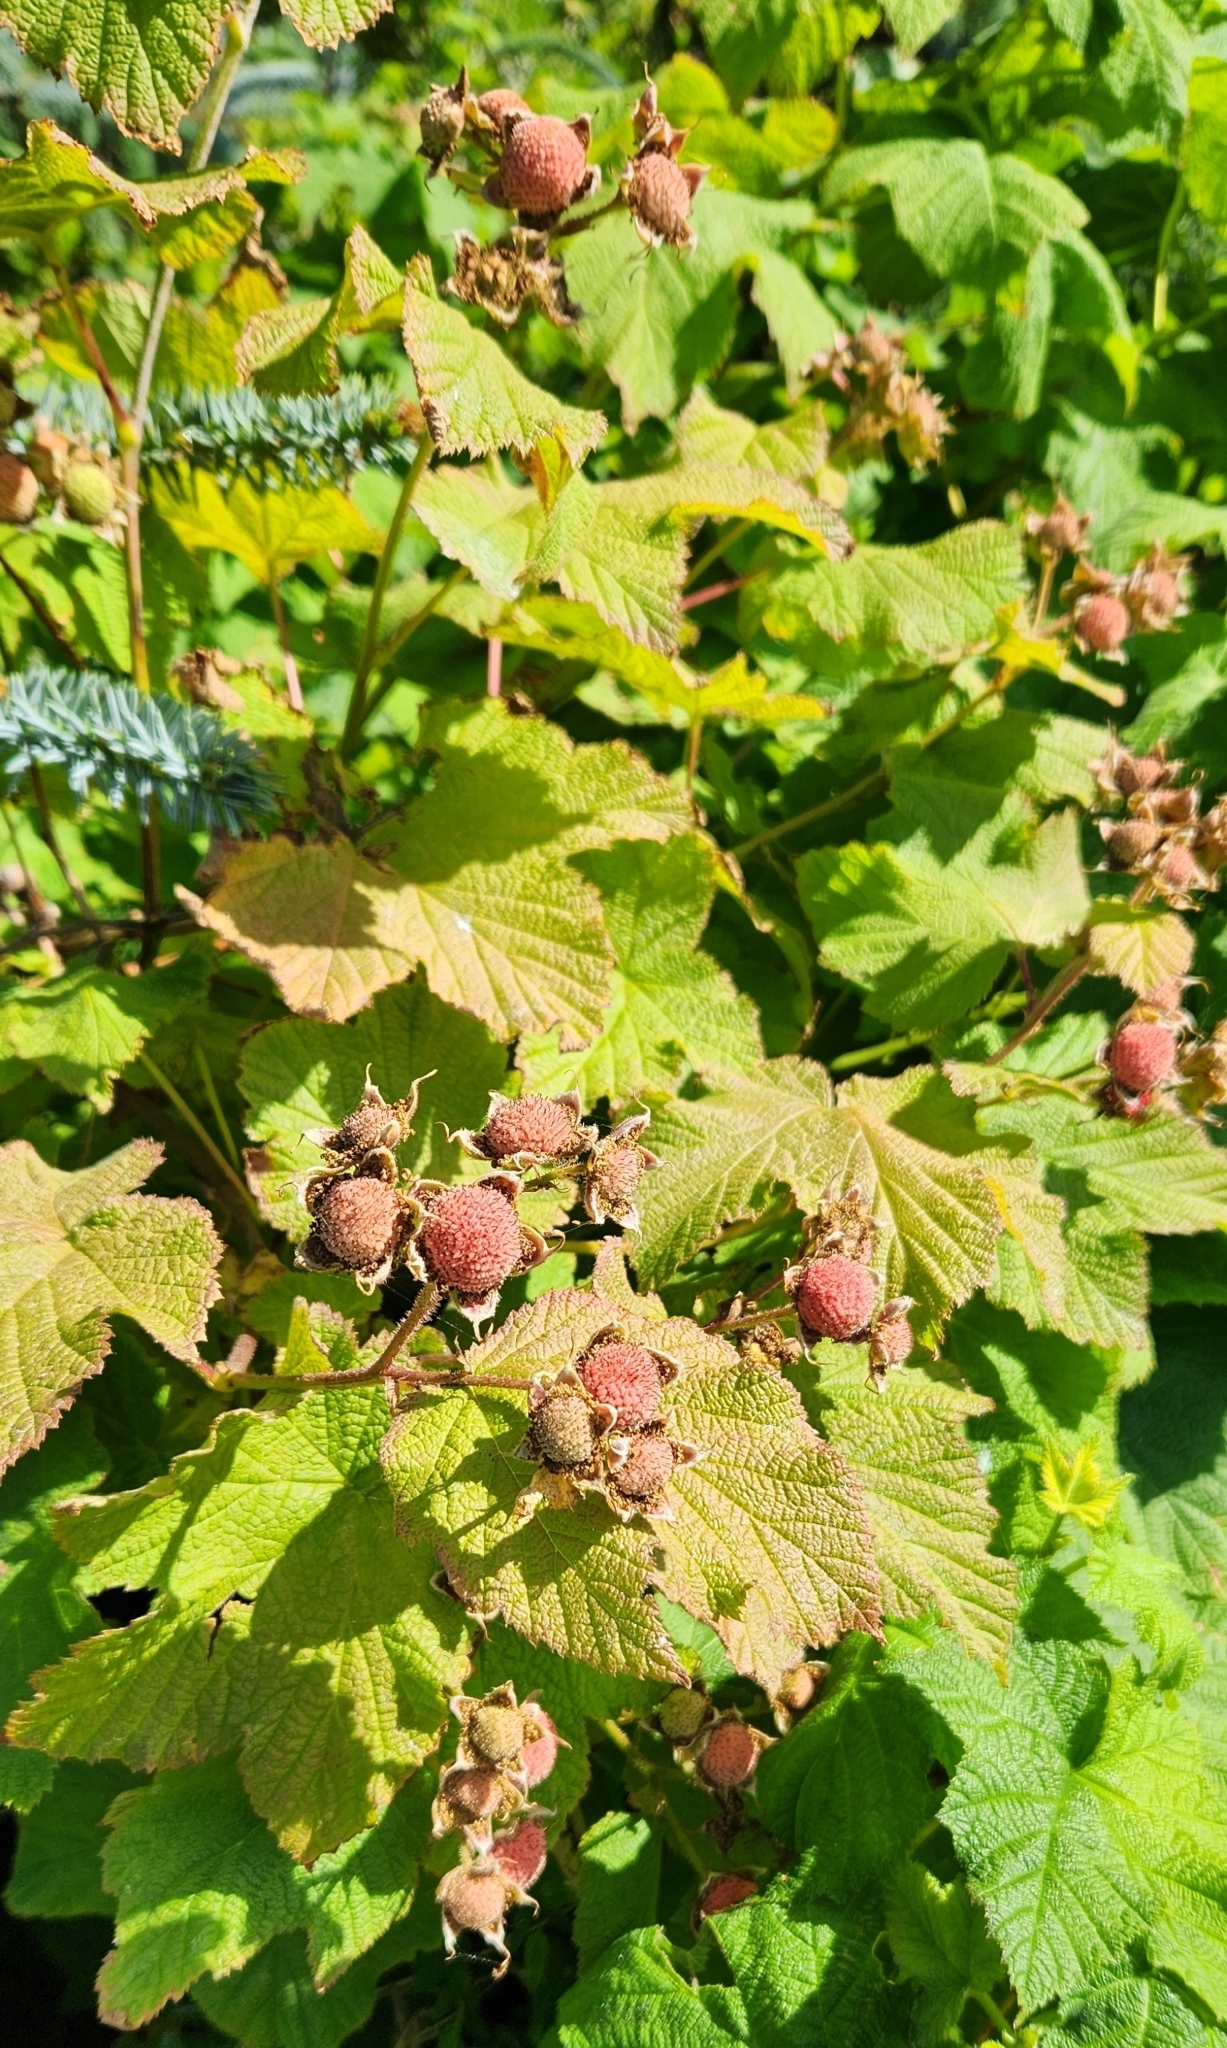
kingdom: Plantae
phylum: Tracheophyta
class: Magnoliopsida
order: Rosales
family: Rosaceae
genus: Rubus
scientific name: Rubus parviflorus
